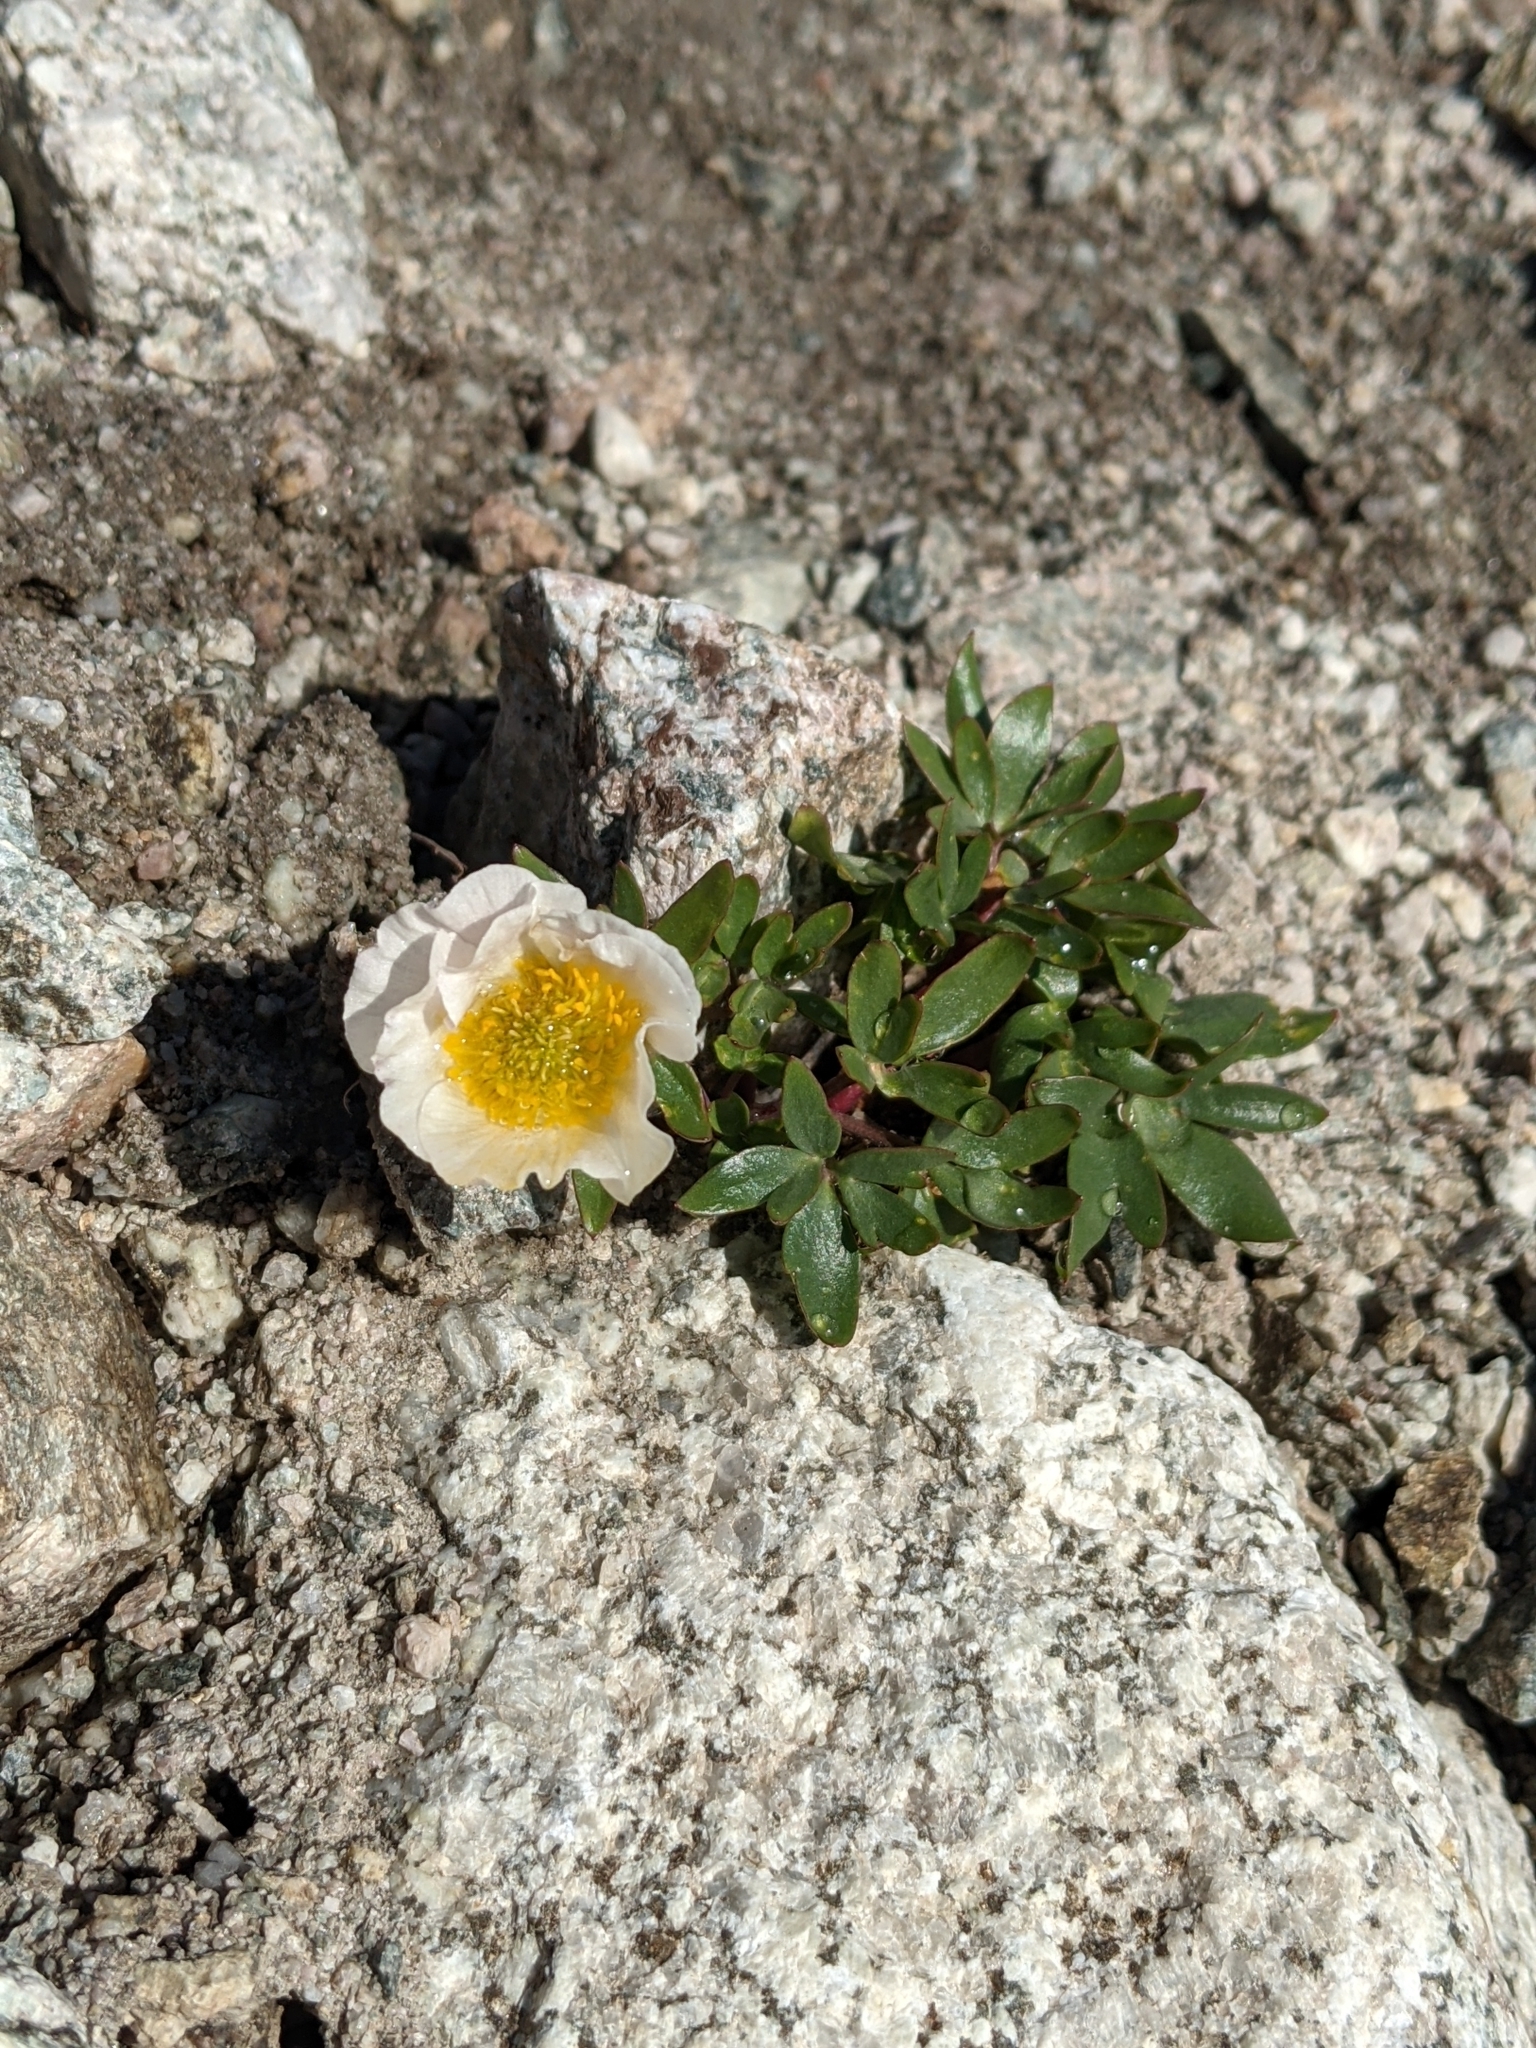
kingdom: Plantae
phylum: Tracheophyta
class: Magnoliopsida
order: Ranunculales
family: Ranunculaceae
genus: Ranunculus
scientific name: Ranunculus glacialis
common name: Glacier buttercup
